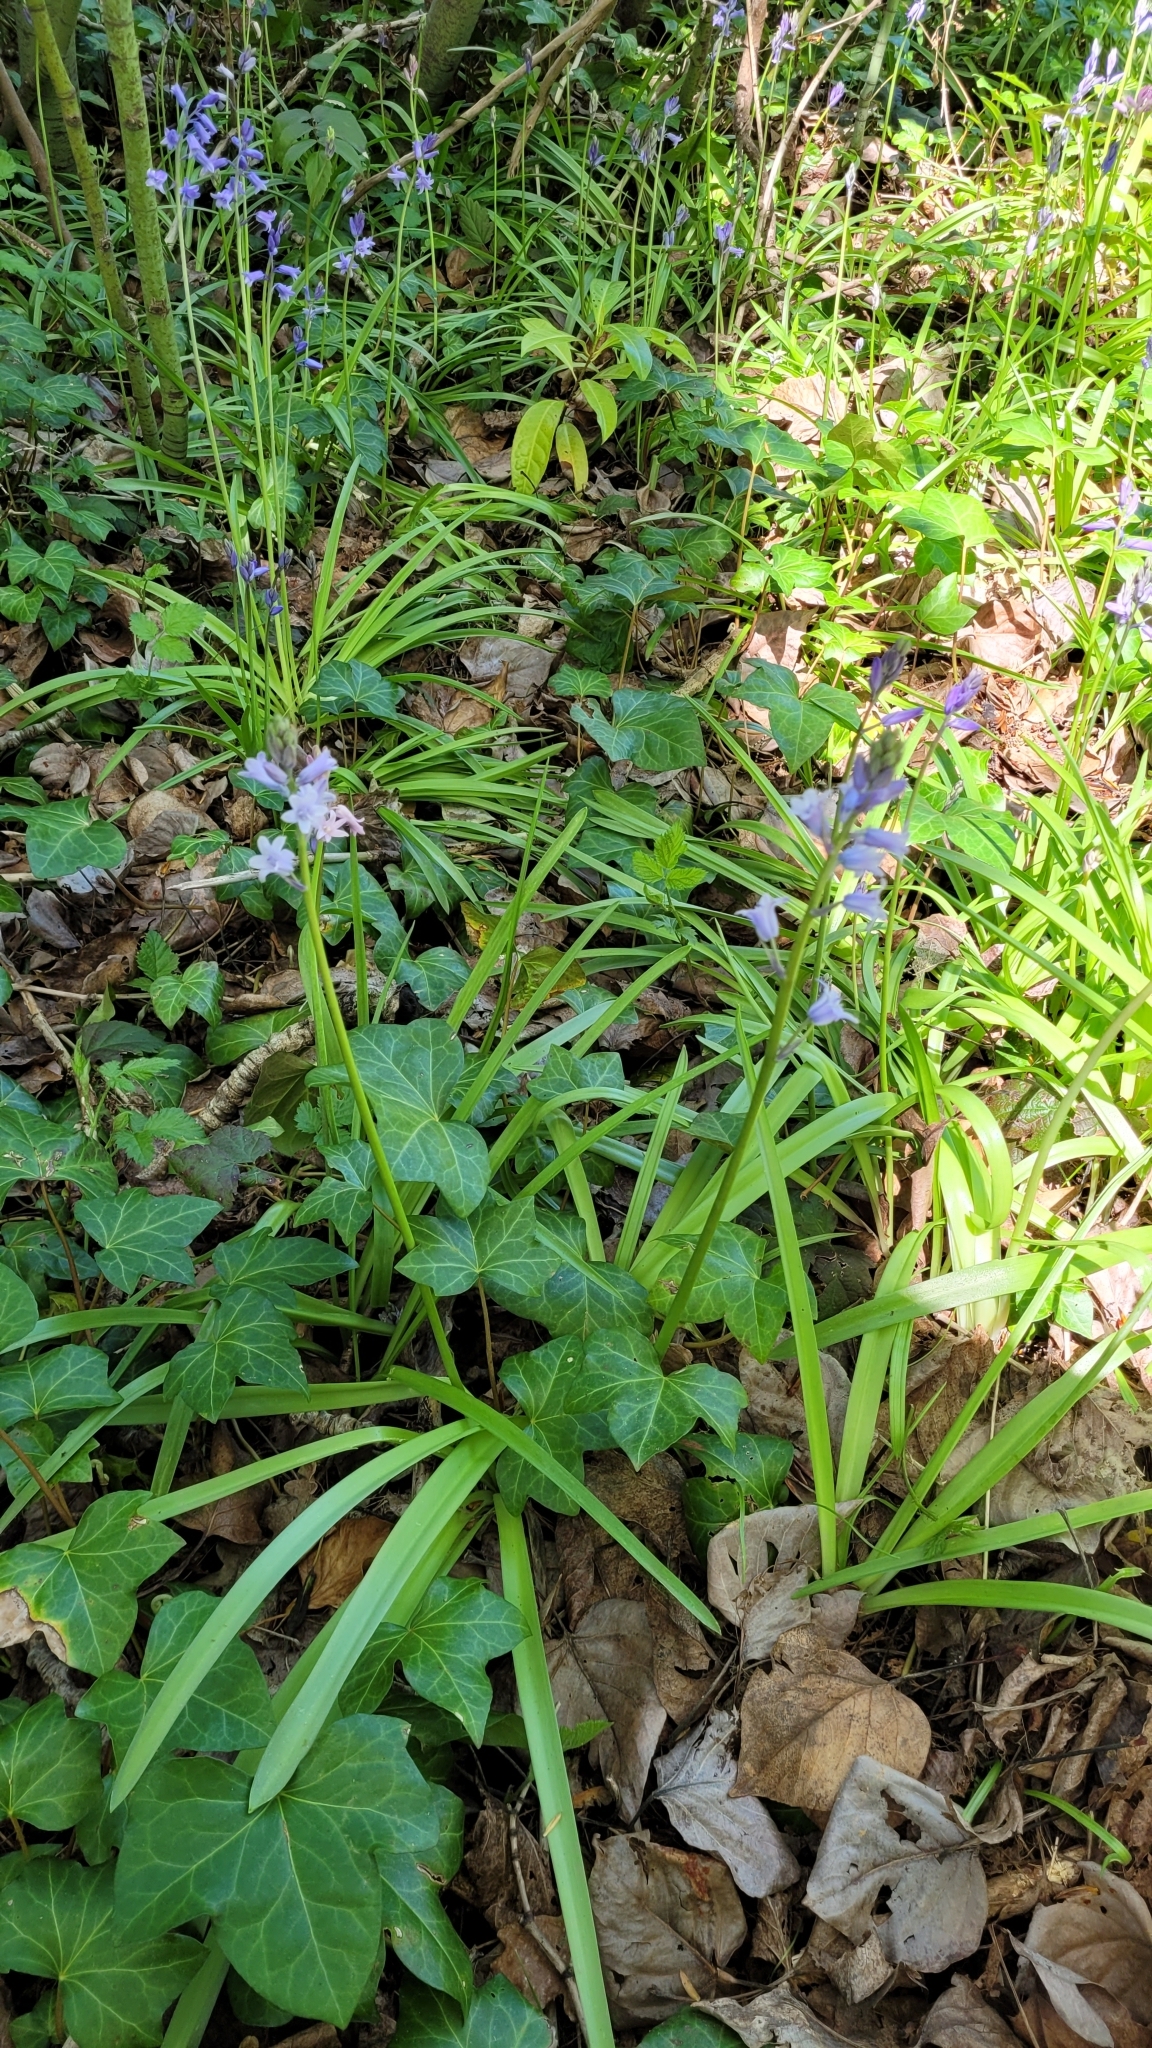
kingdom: Plantae
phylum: Tracheophyta
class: Liliopsida
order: Asparagales
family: Asparagaceae
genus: Hyacinthoides
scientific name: Hyacinthoides hispanica
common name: Spanish bluebell
